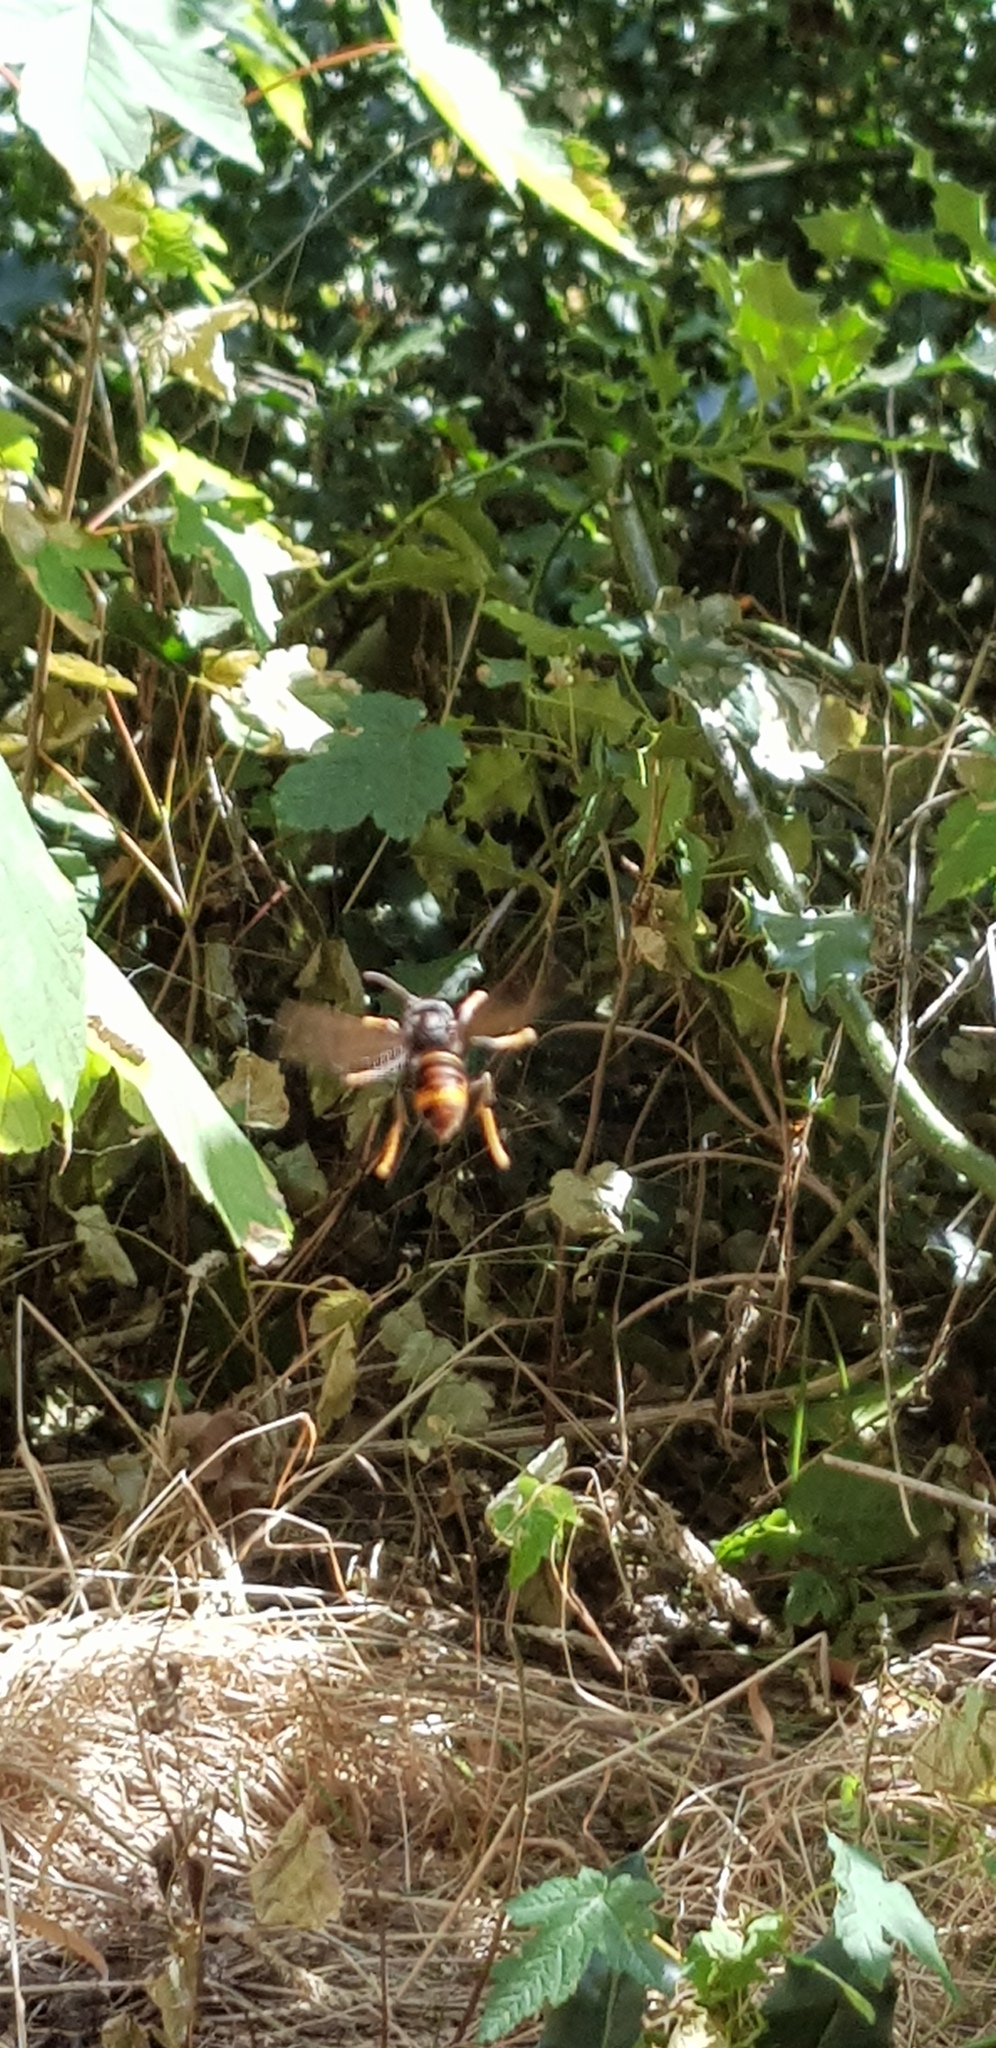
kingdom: Animalia
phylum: Arthropoda
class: Insecta
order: Hymenoptera
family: Vespidae
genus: Vespa
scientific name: Vespa velutina
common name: Asian hornet
